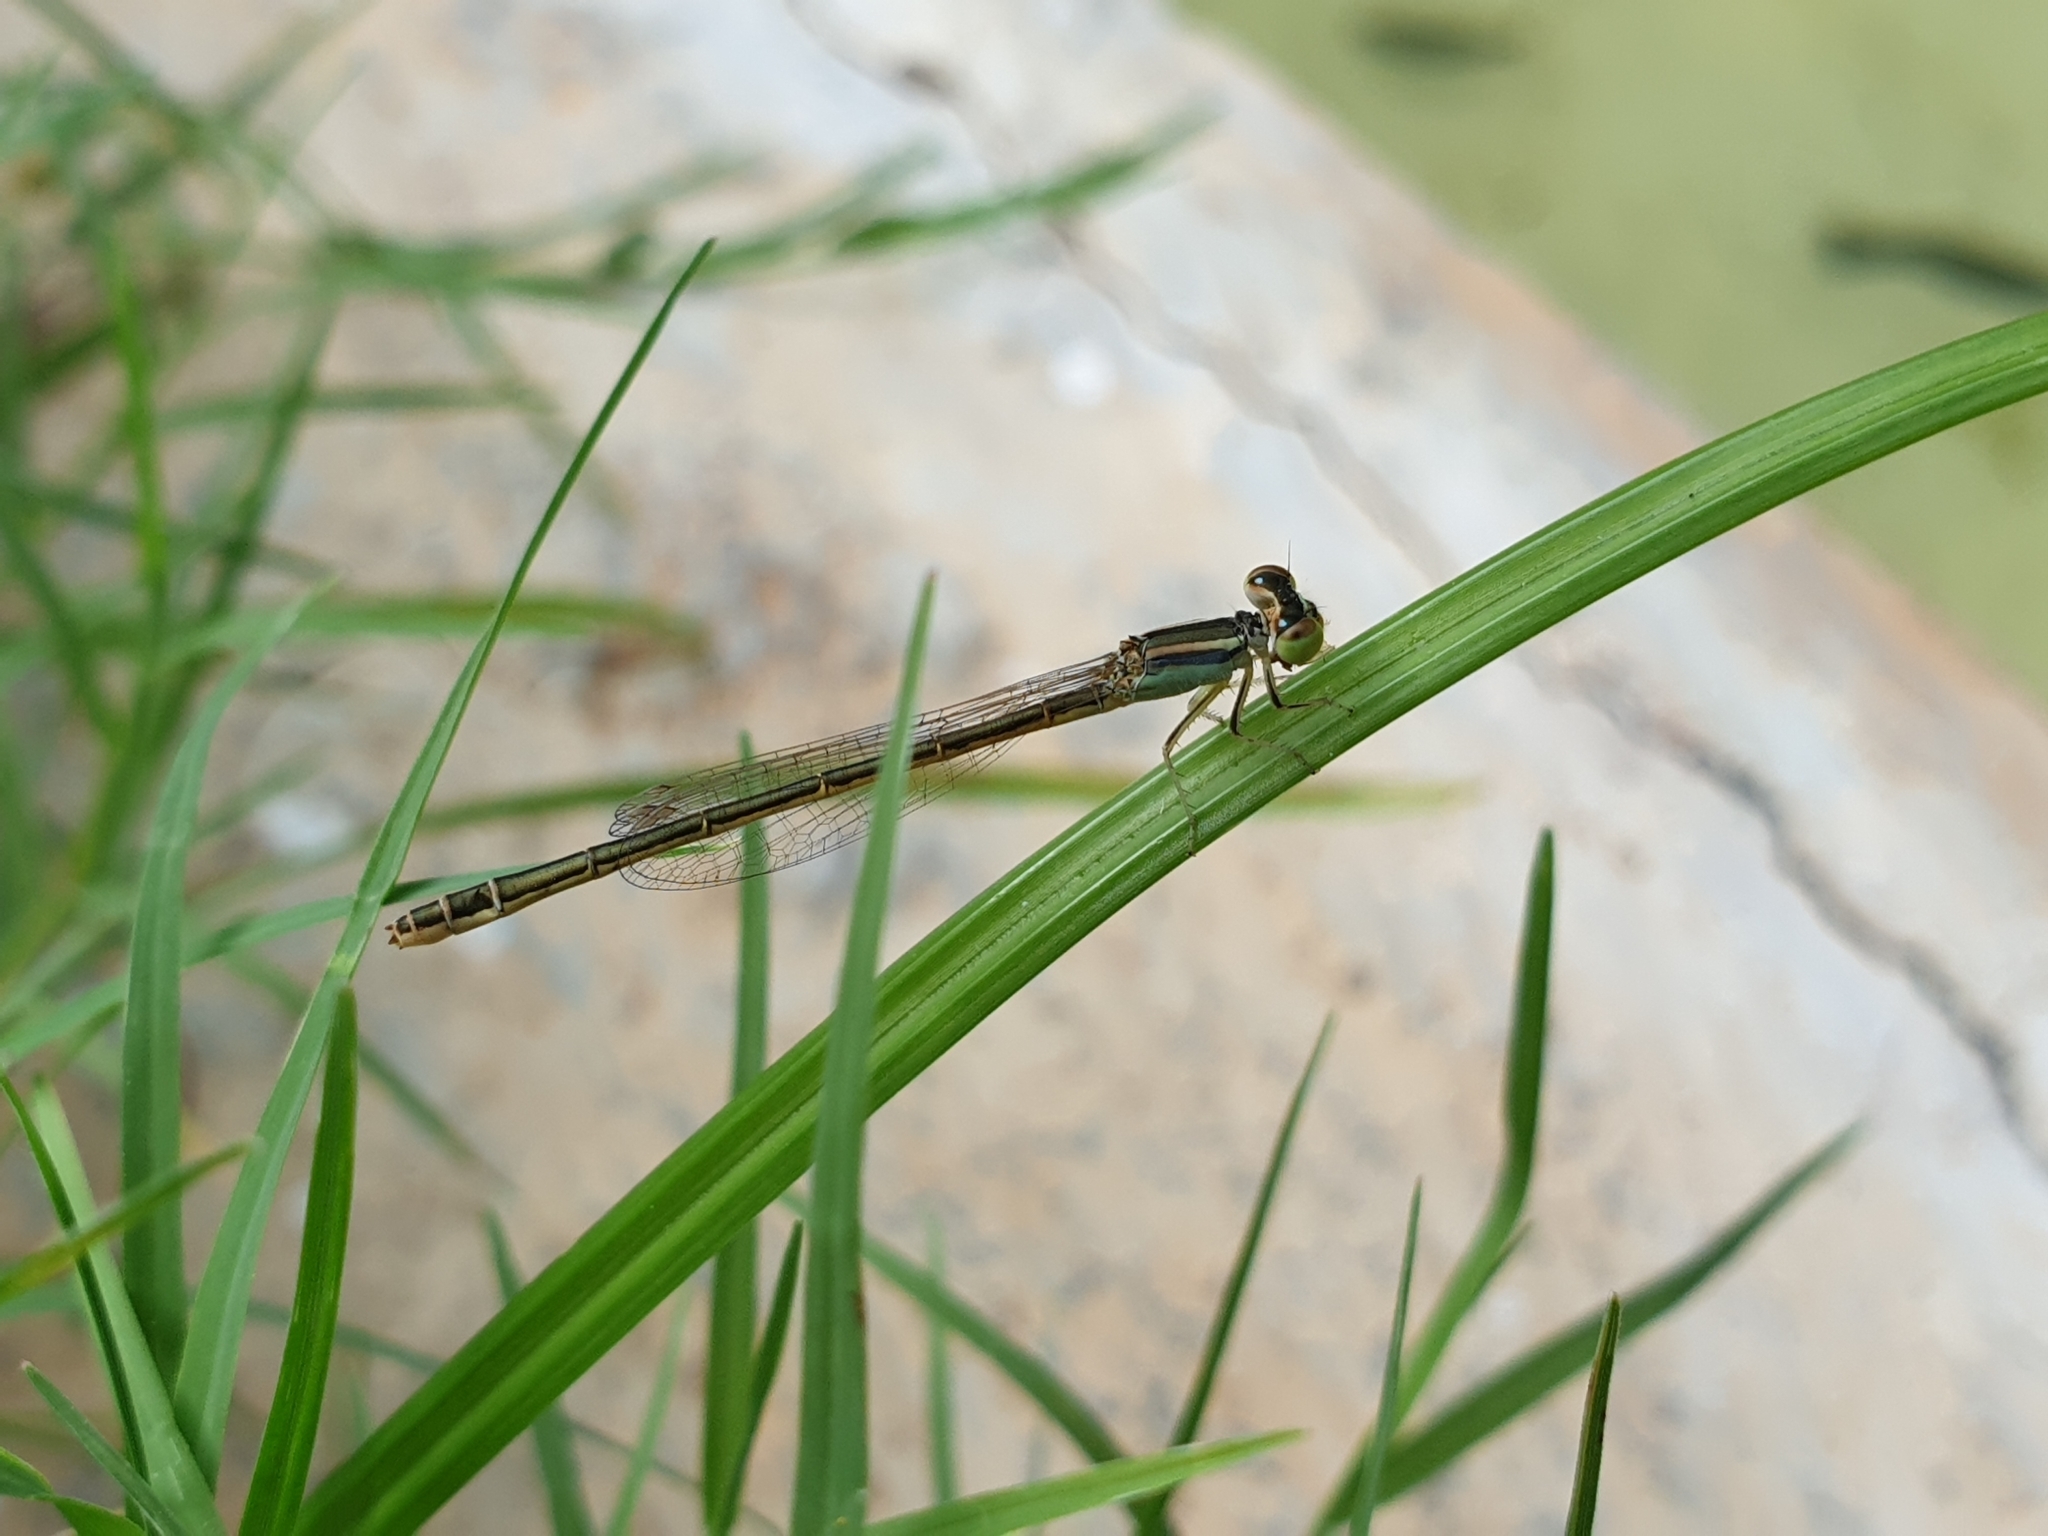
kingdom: Animalia
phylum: Arthropoda
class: Insecta
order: Odonata
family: Coenagrionidae
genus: Ischnura
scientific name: Ischnura rubilio
